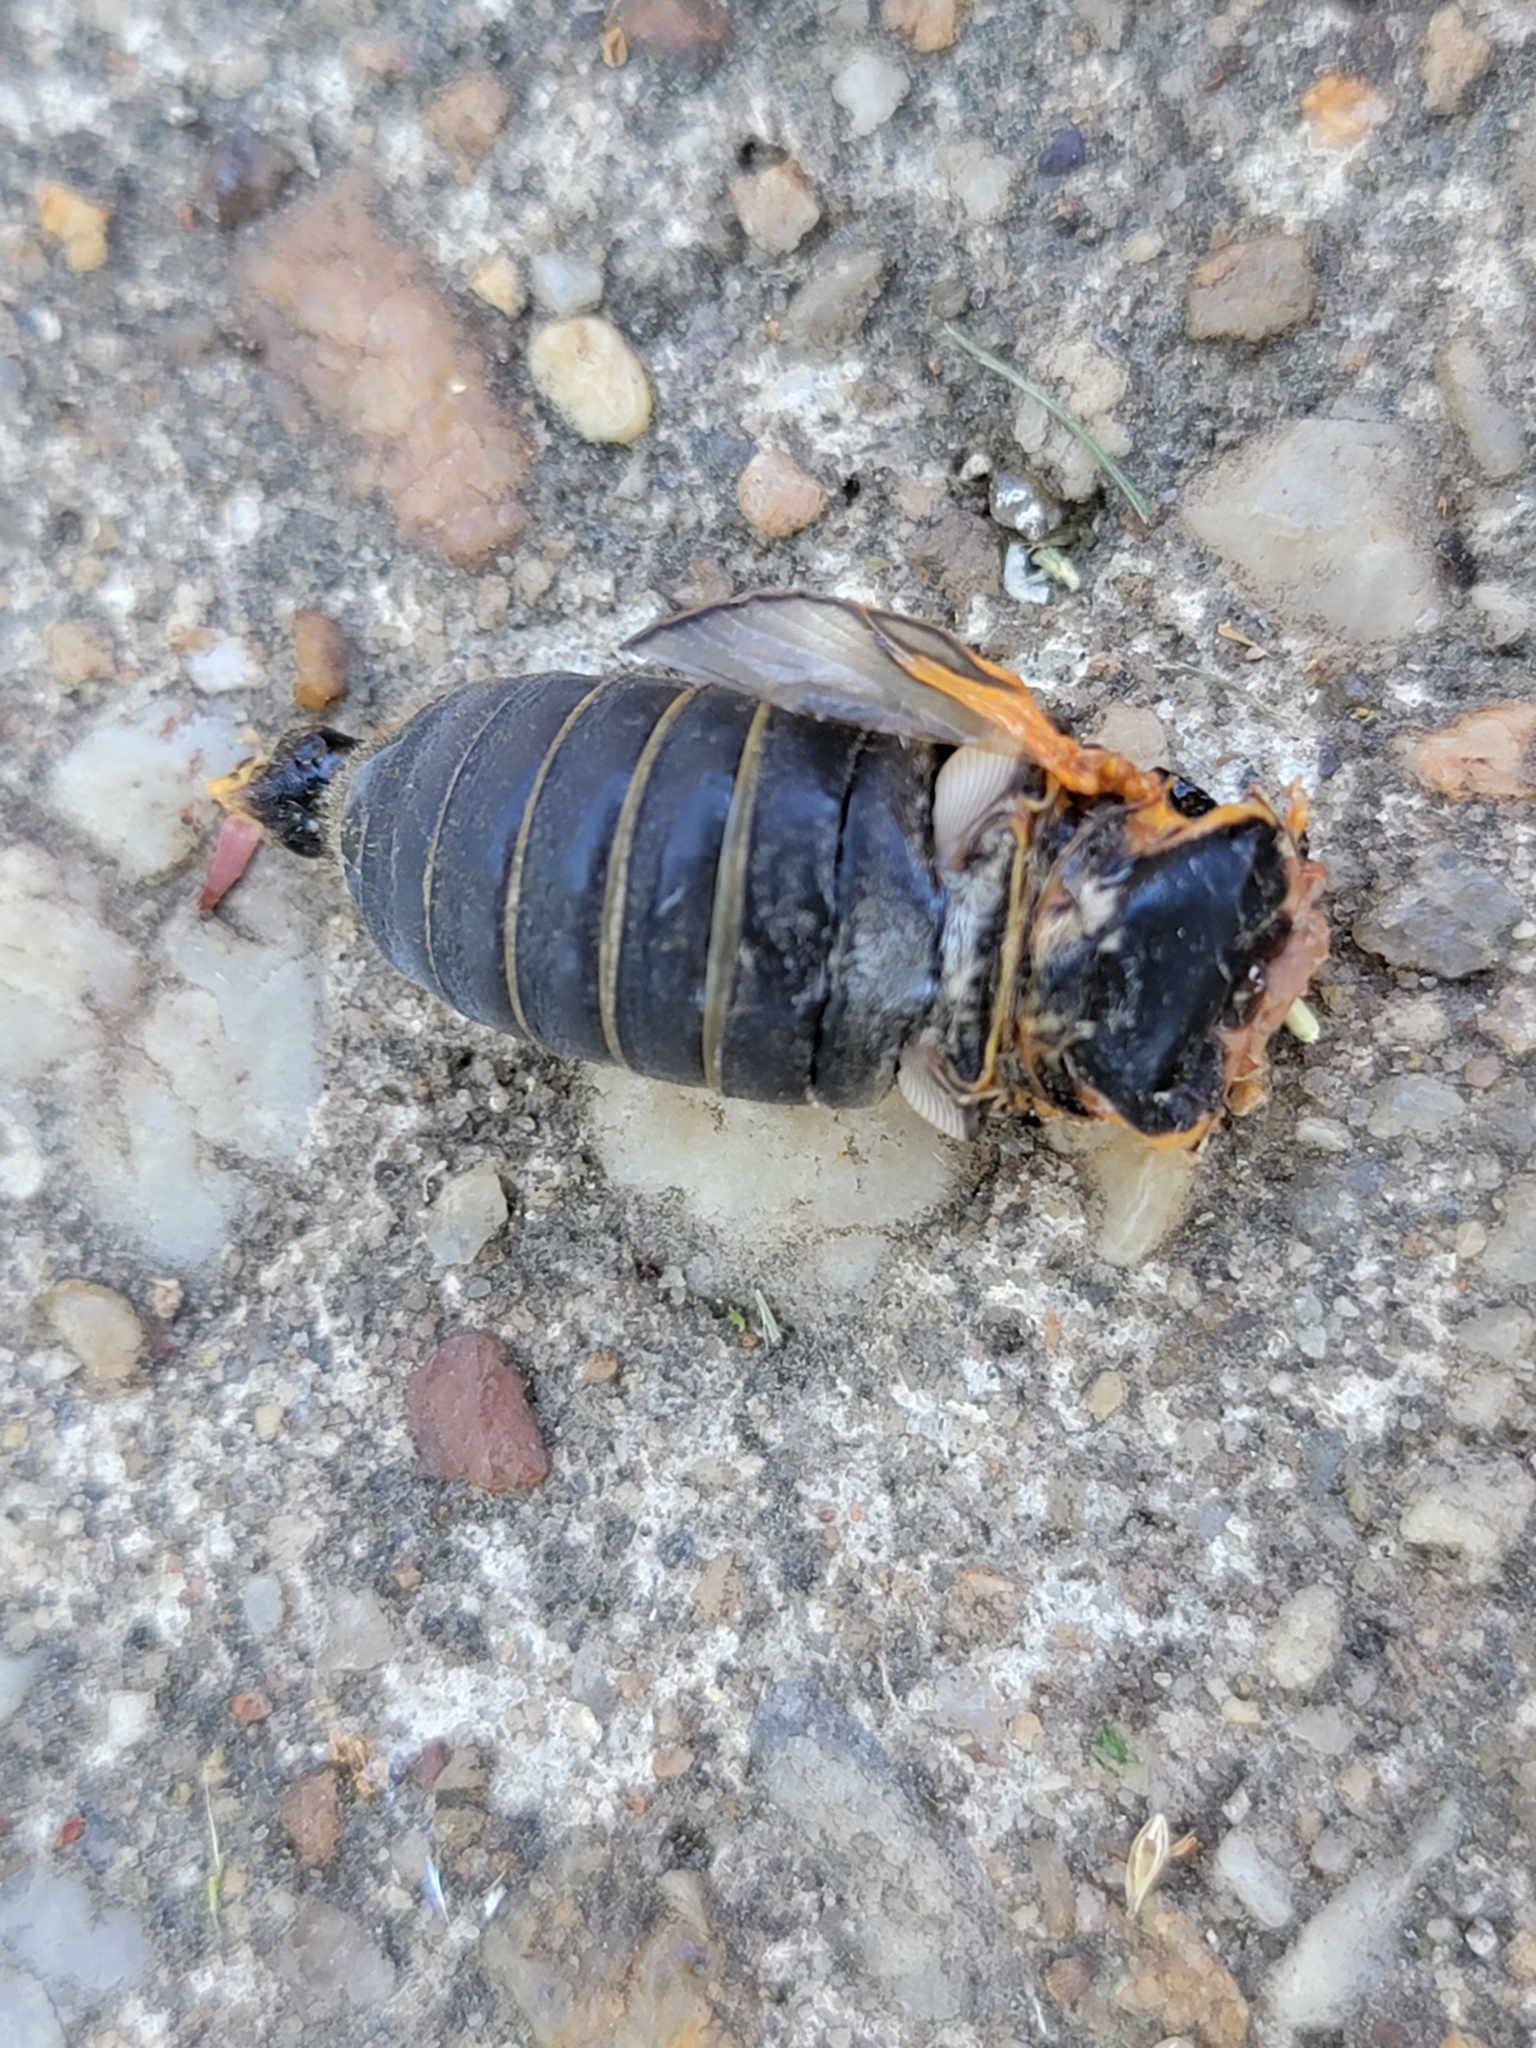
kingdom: Animalia
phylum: Arthropoda
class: Insecta
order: Hemiptera
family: Cicadidae
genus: Magicicada
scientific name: Magicicada septendecim
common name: Periodical cicada
